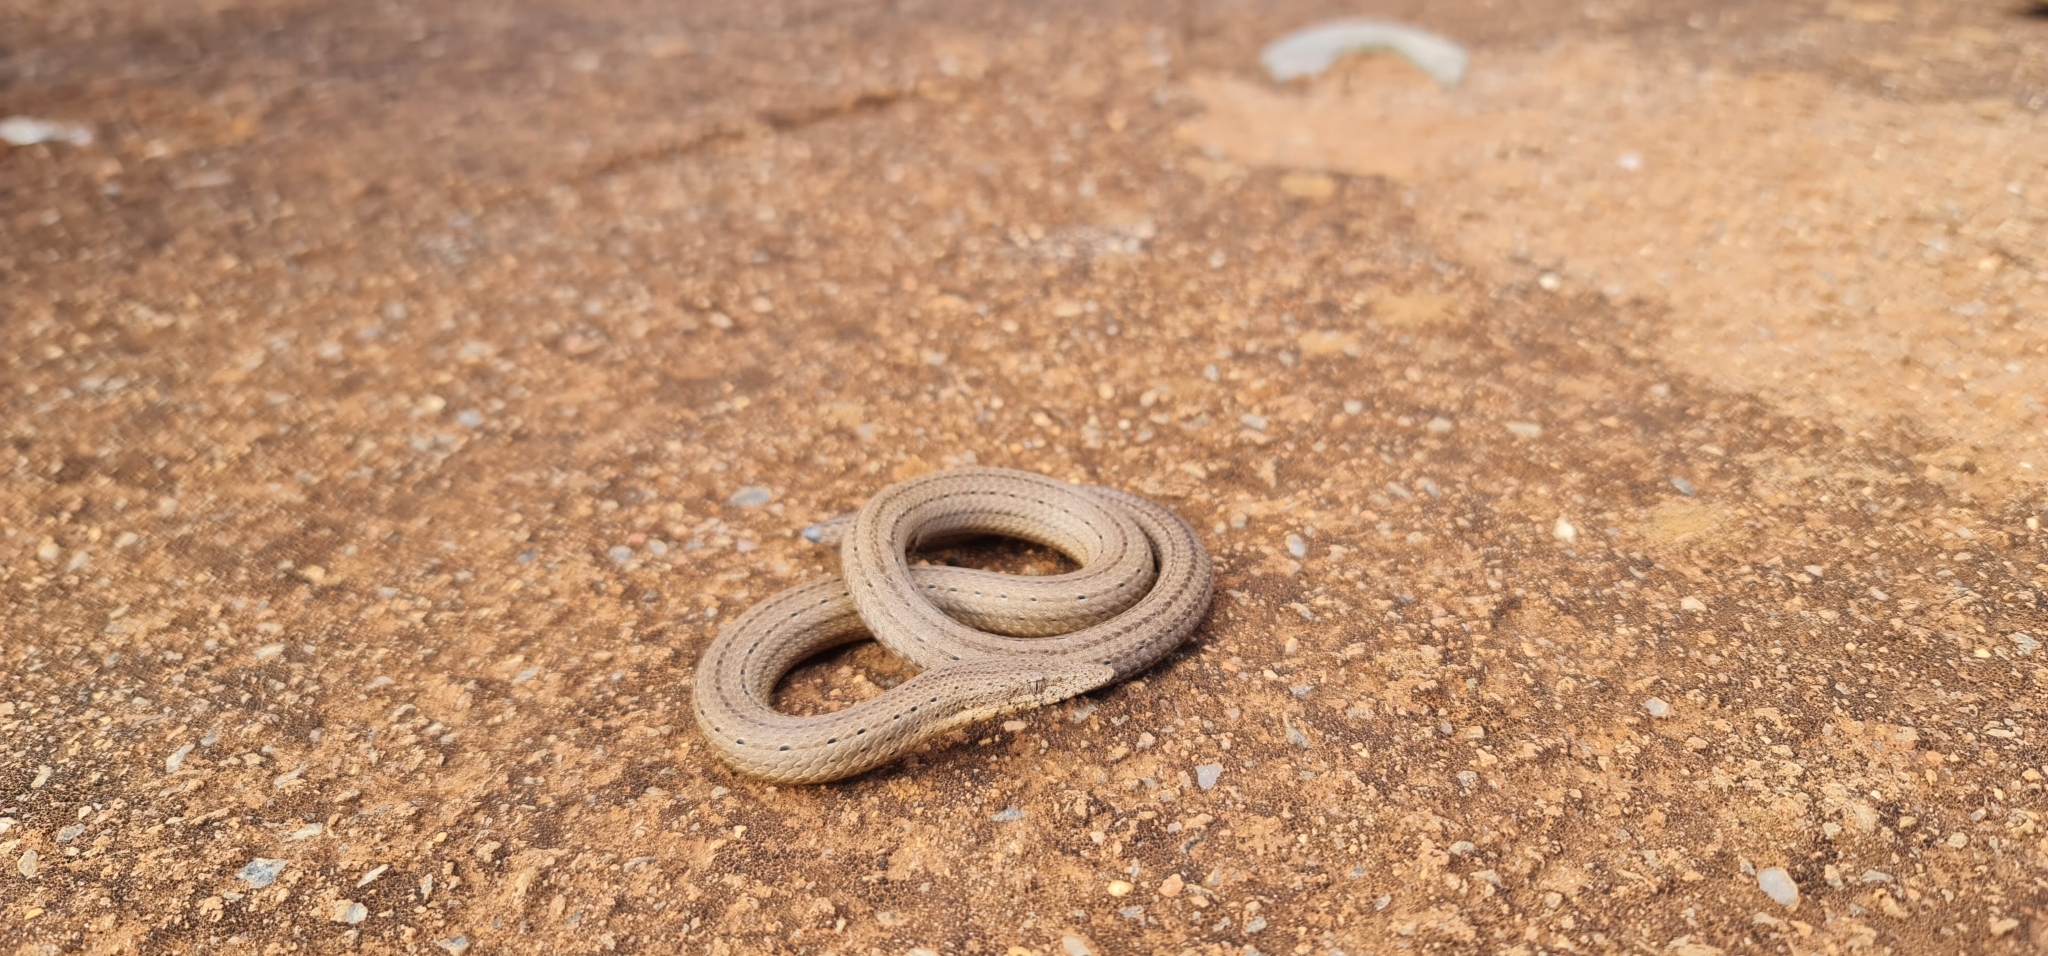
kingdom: Animalia
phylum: Chordata
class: Squamata
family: Pygopodidae
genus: Lialis
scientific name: Lialis burtonis
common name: Burton's legless lizard
